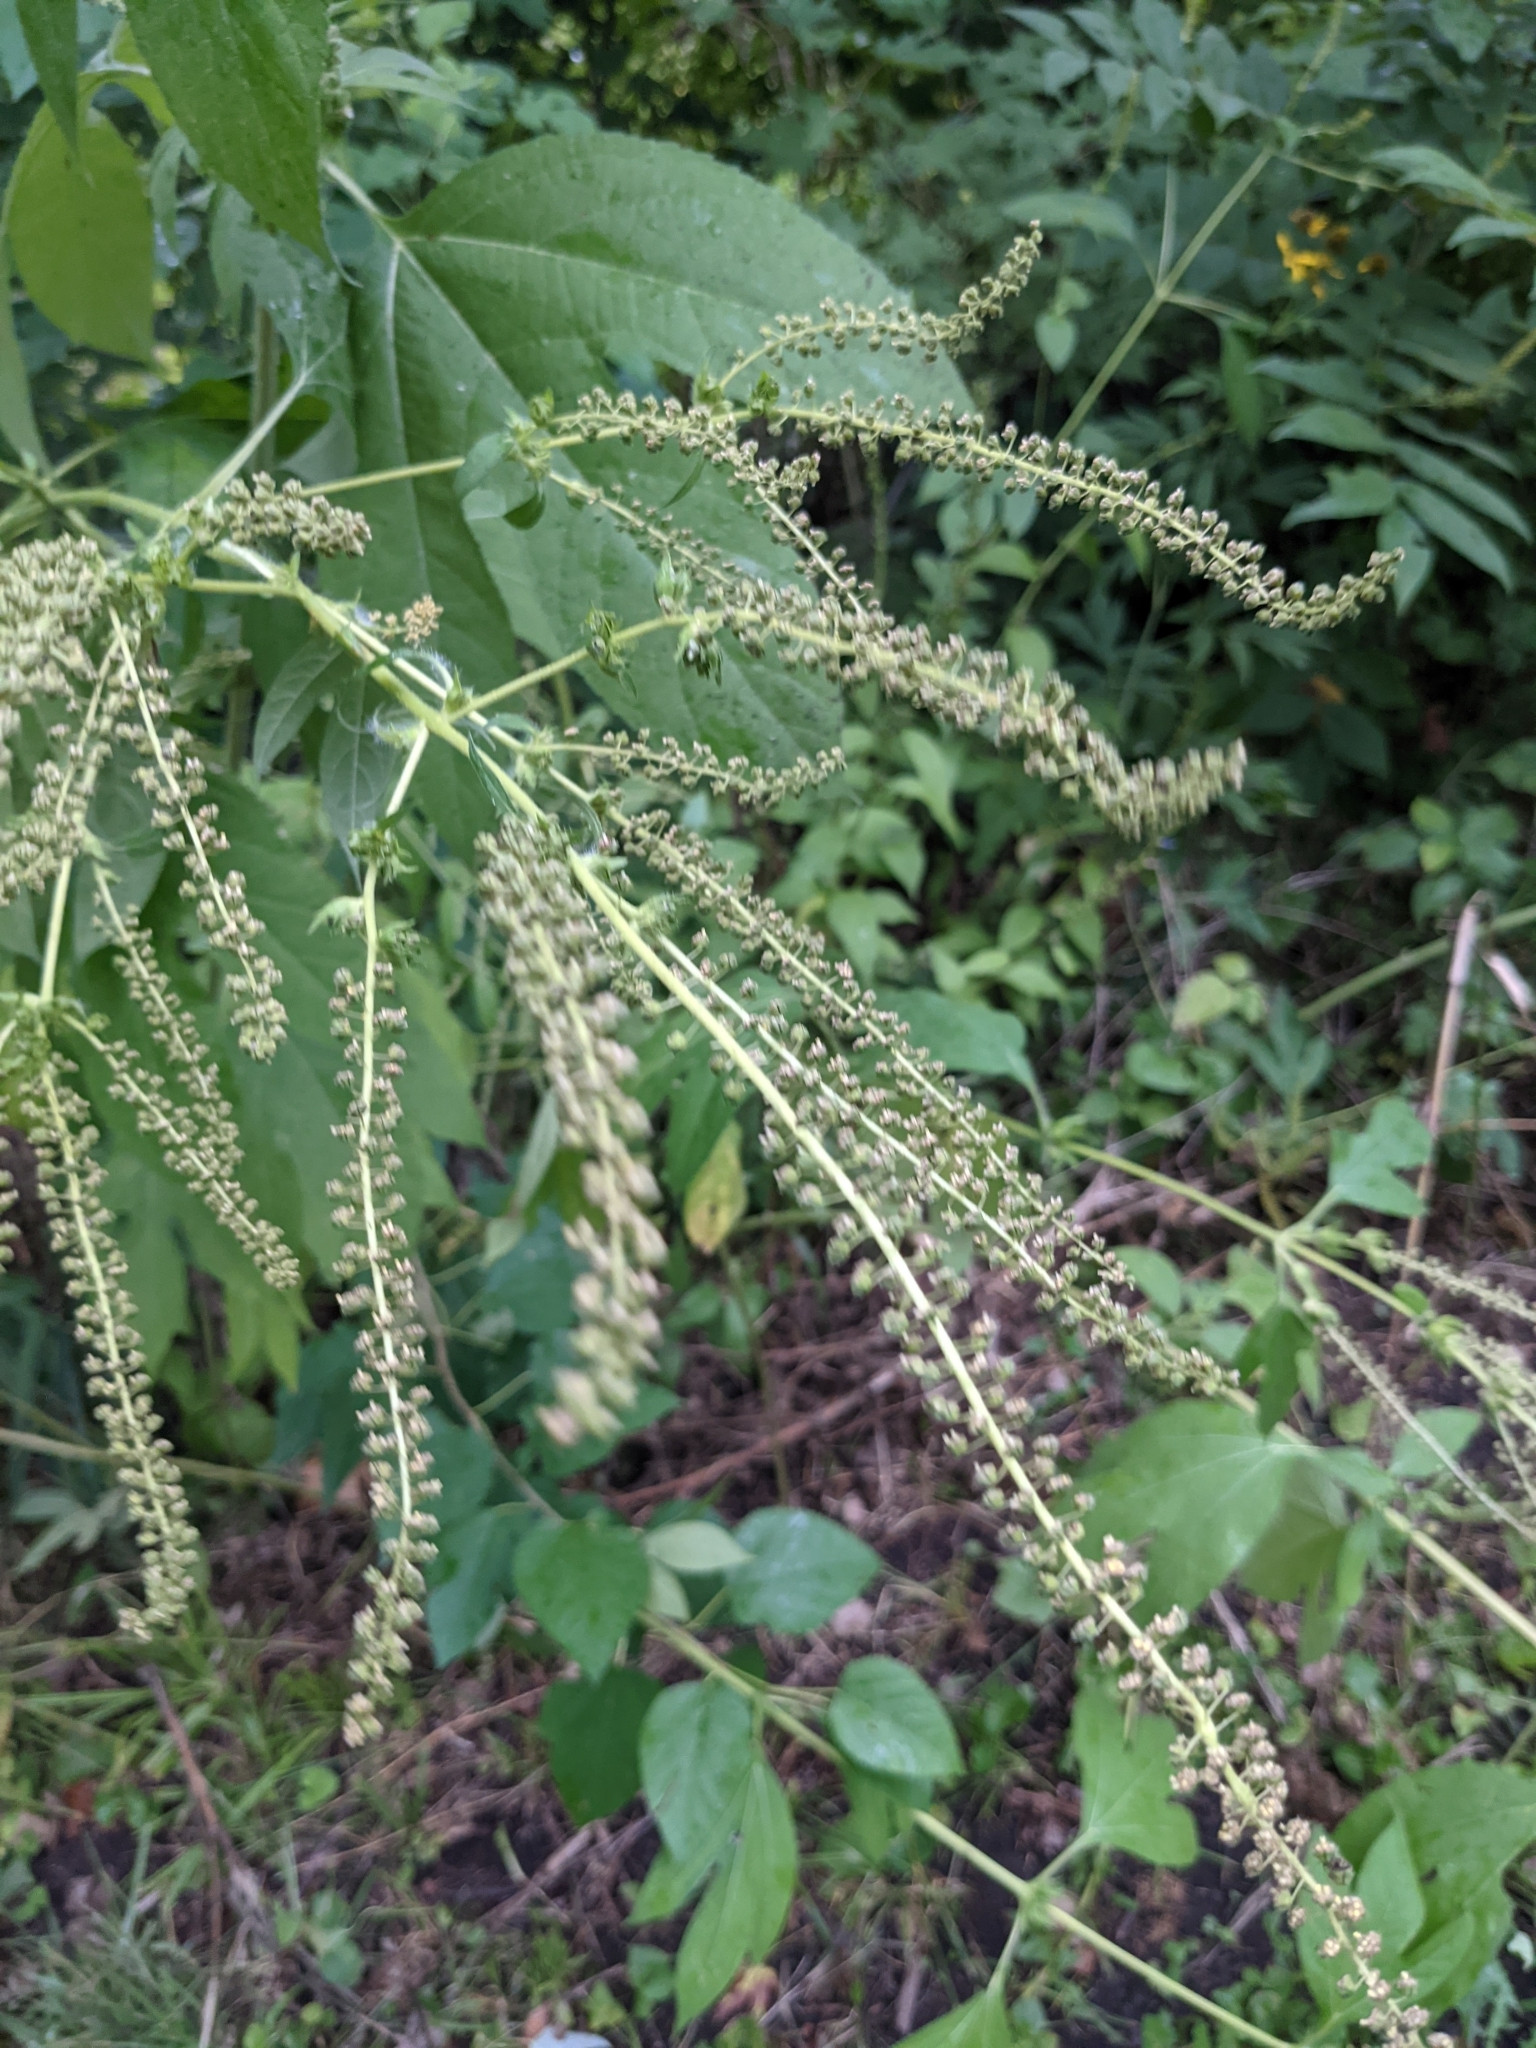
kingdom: Plantae
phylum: Tracheophyta
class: Magnoliopsida
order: Asterales
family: Asteraceae
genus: Ambrosia
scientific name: Ambrosia trifida
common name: Giant ragweed
